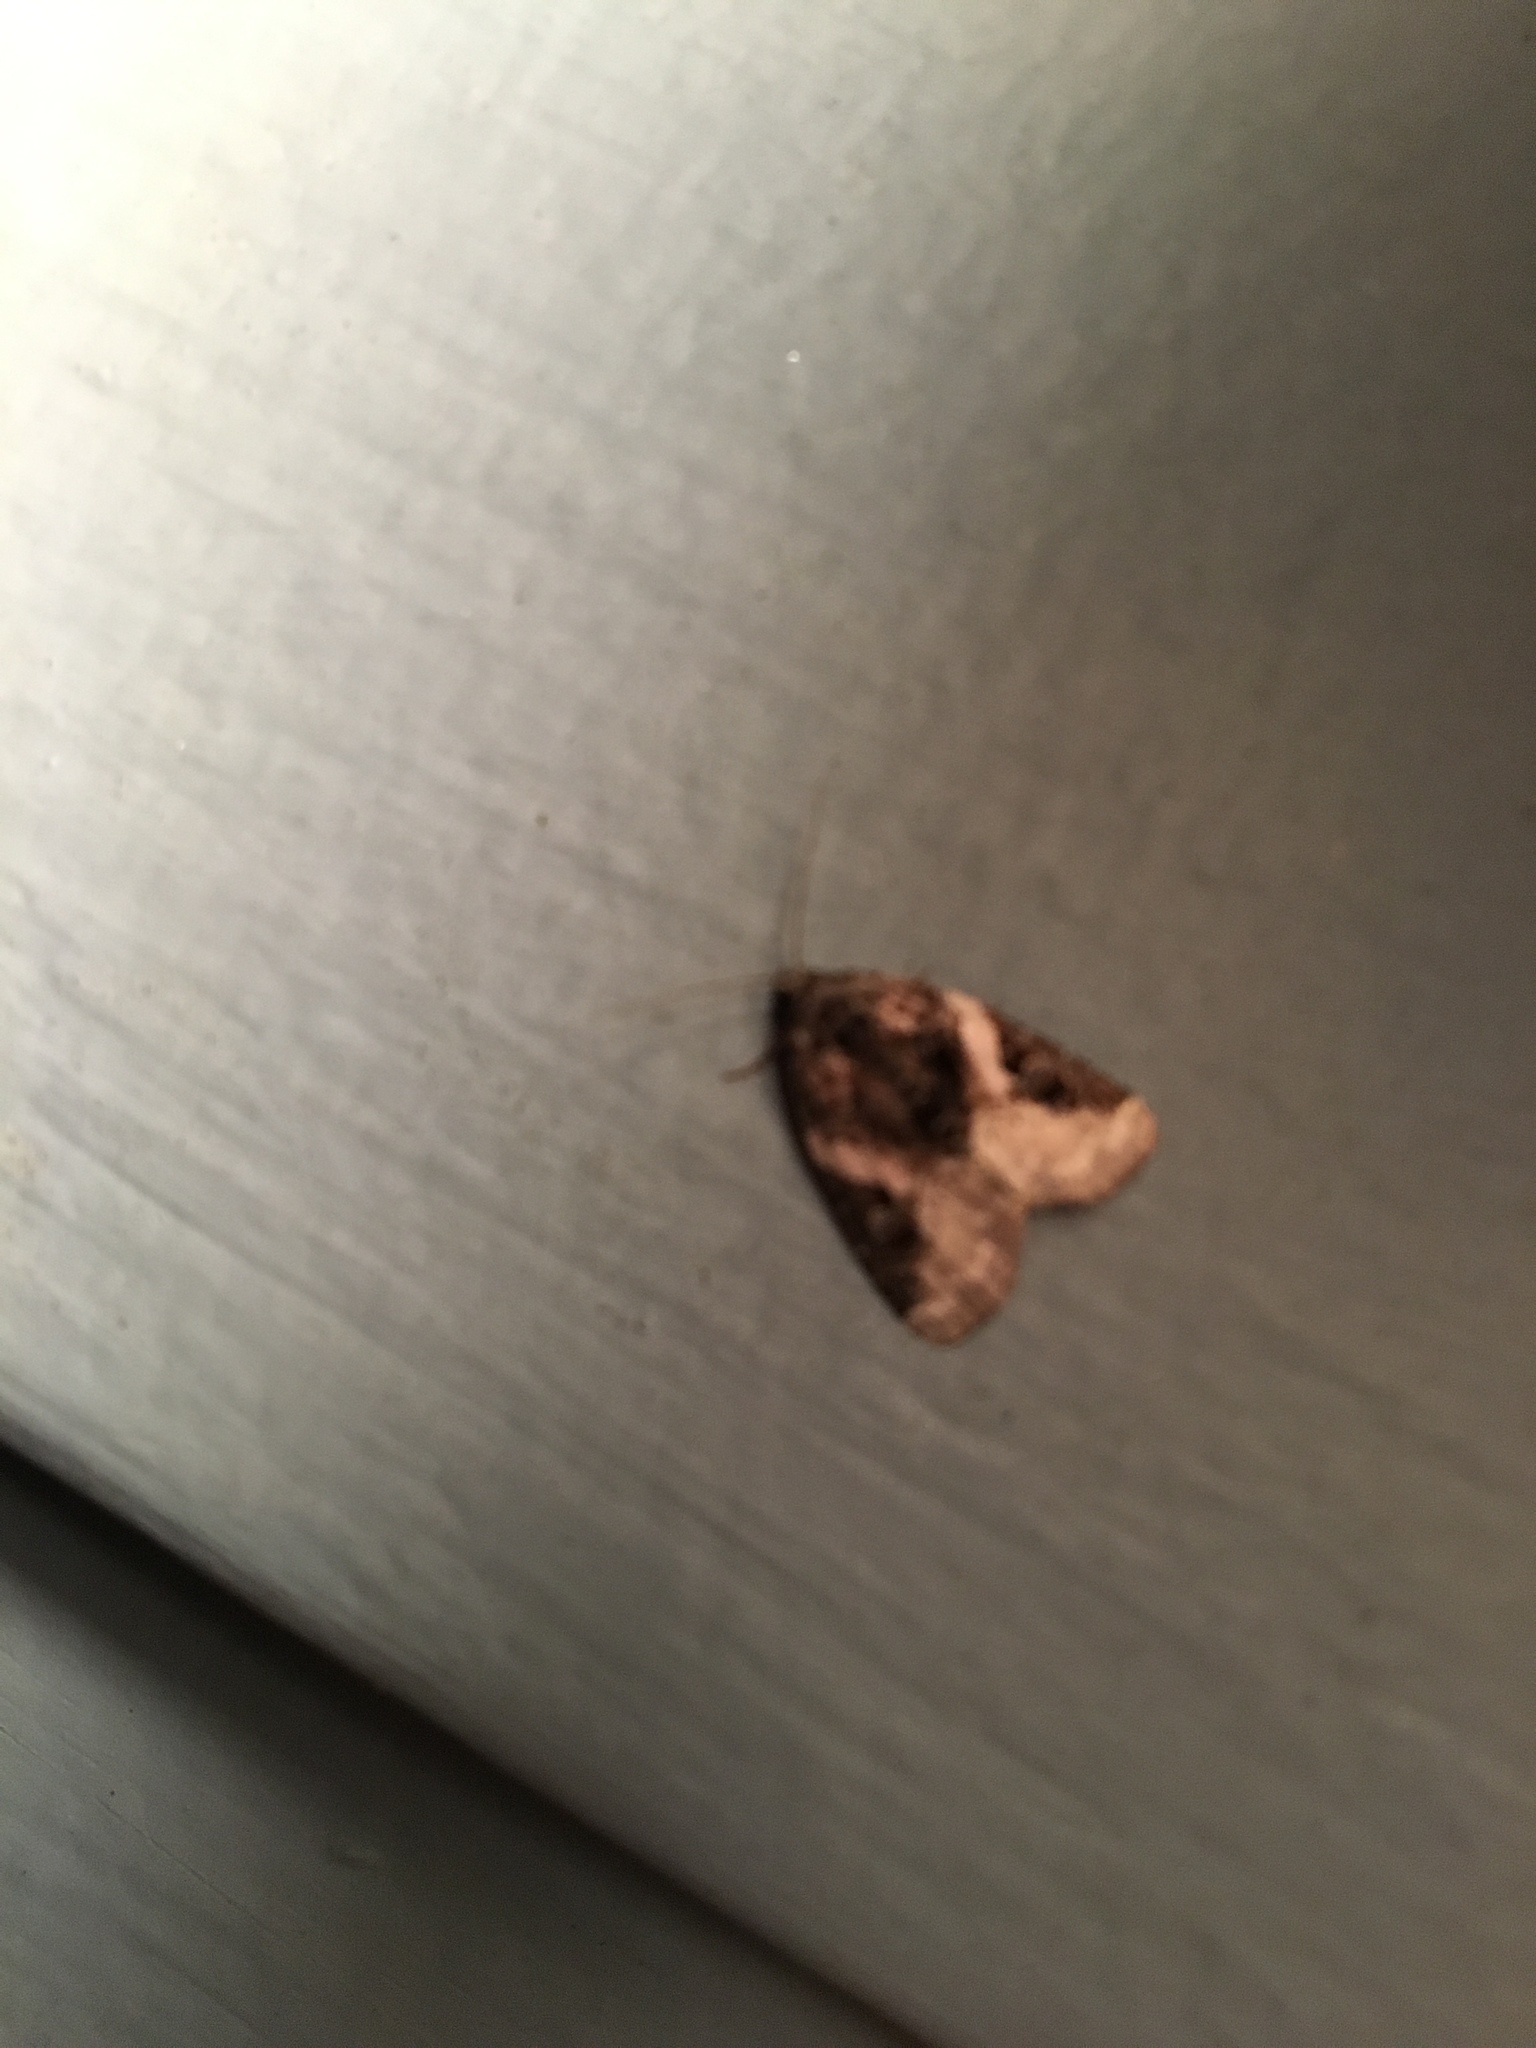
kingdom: Animalia
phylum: Arthropoda
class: Insecta
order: Lepidoptera
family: Noctuidae
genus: Pseudeustrotia
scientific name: Pseudeustrotia carneola
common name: Pink-barred lithacodia moth
